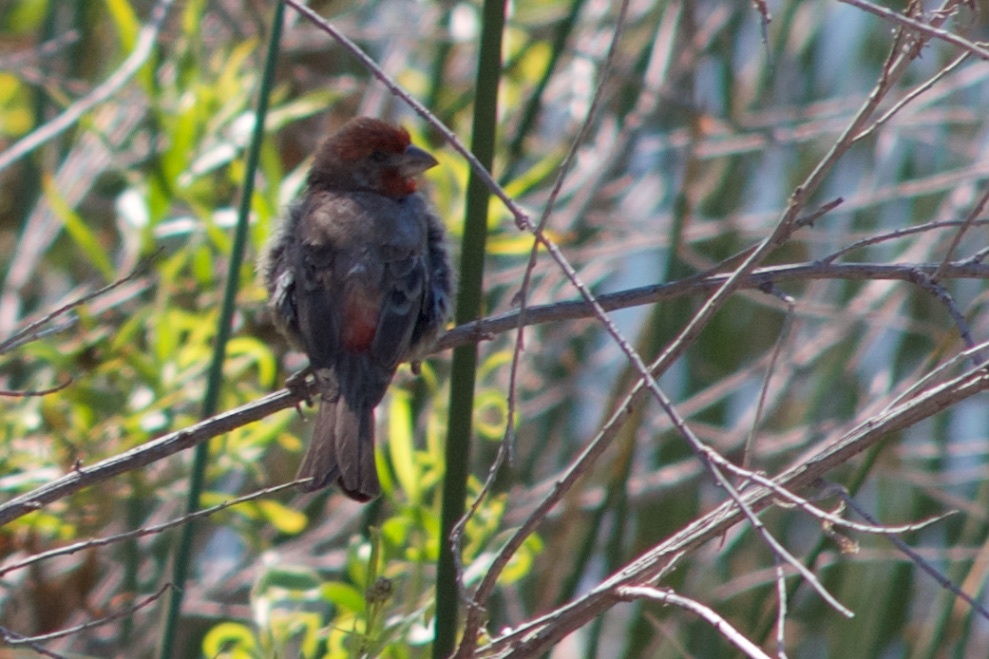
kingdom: Animalia
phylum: Chordata
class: Aves
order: Passeriformes
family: Fringillidae
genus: Haemorhous
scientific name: Haemorhous mexicanus
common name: House finch
